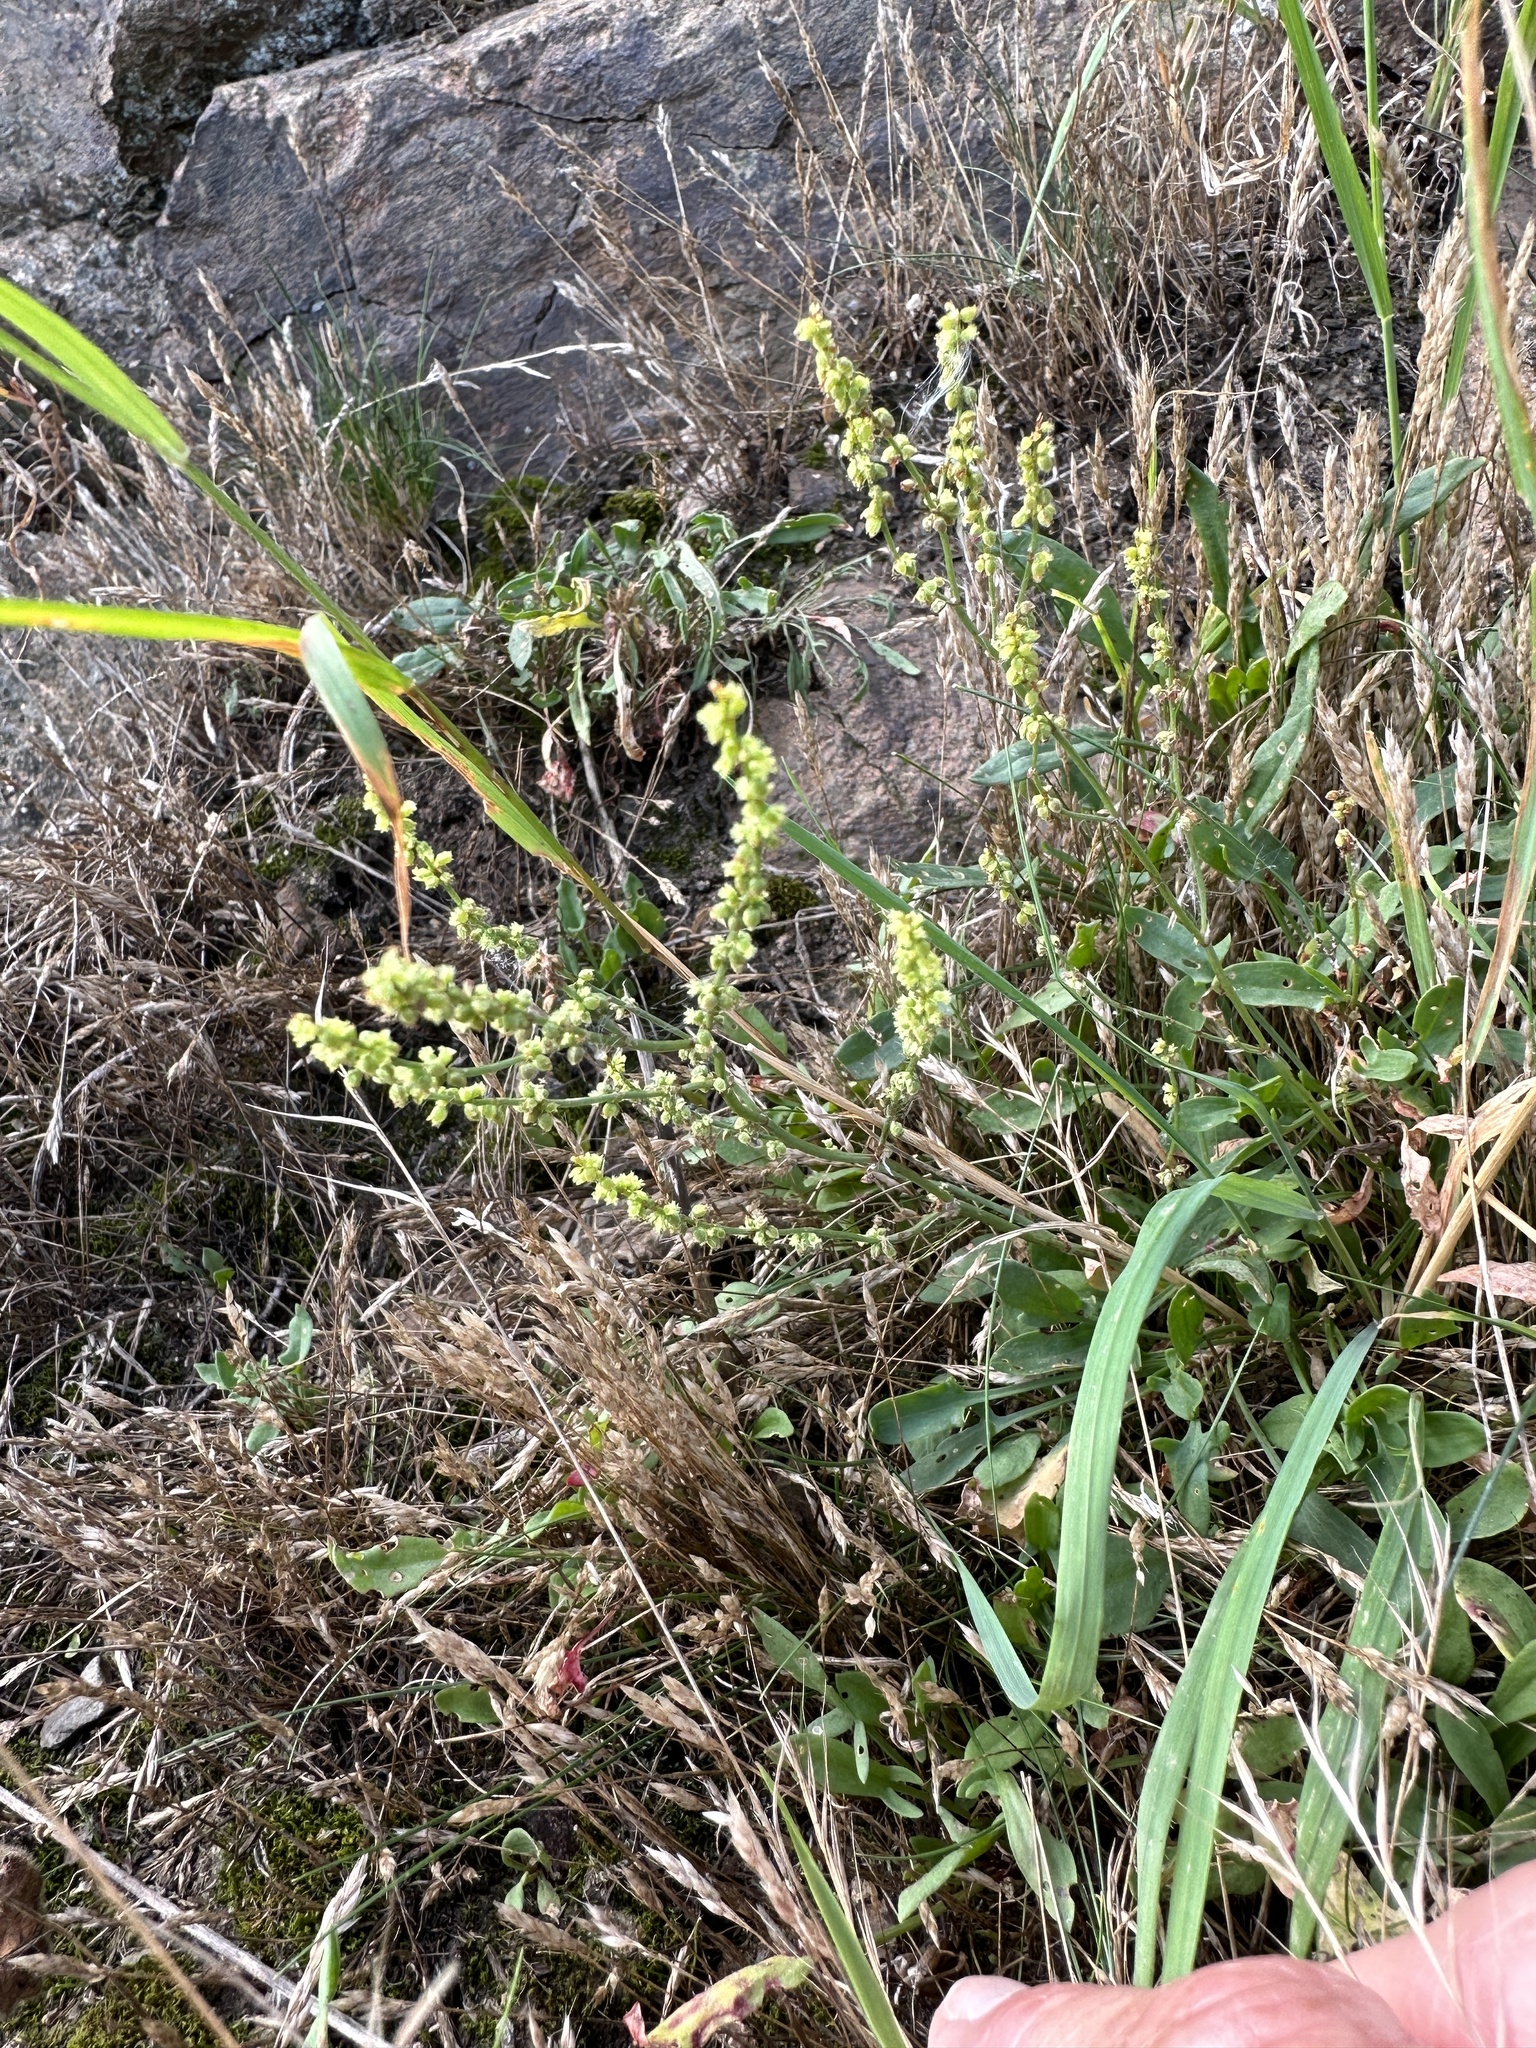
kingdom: Plantae
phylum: Tracheophyta
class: Magnoliopsida
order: Caryophyllales
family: Polygonaceae
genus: Rumex
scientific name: Rumex acetosella
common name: Common sheep sorrel
